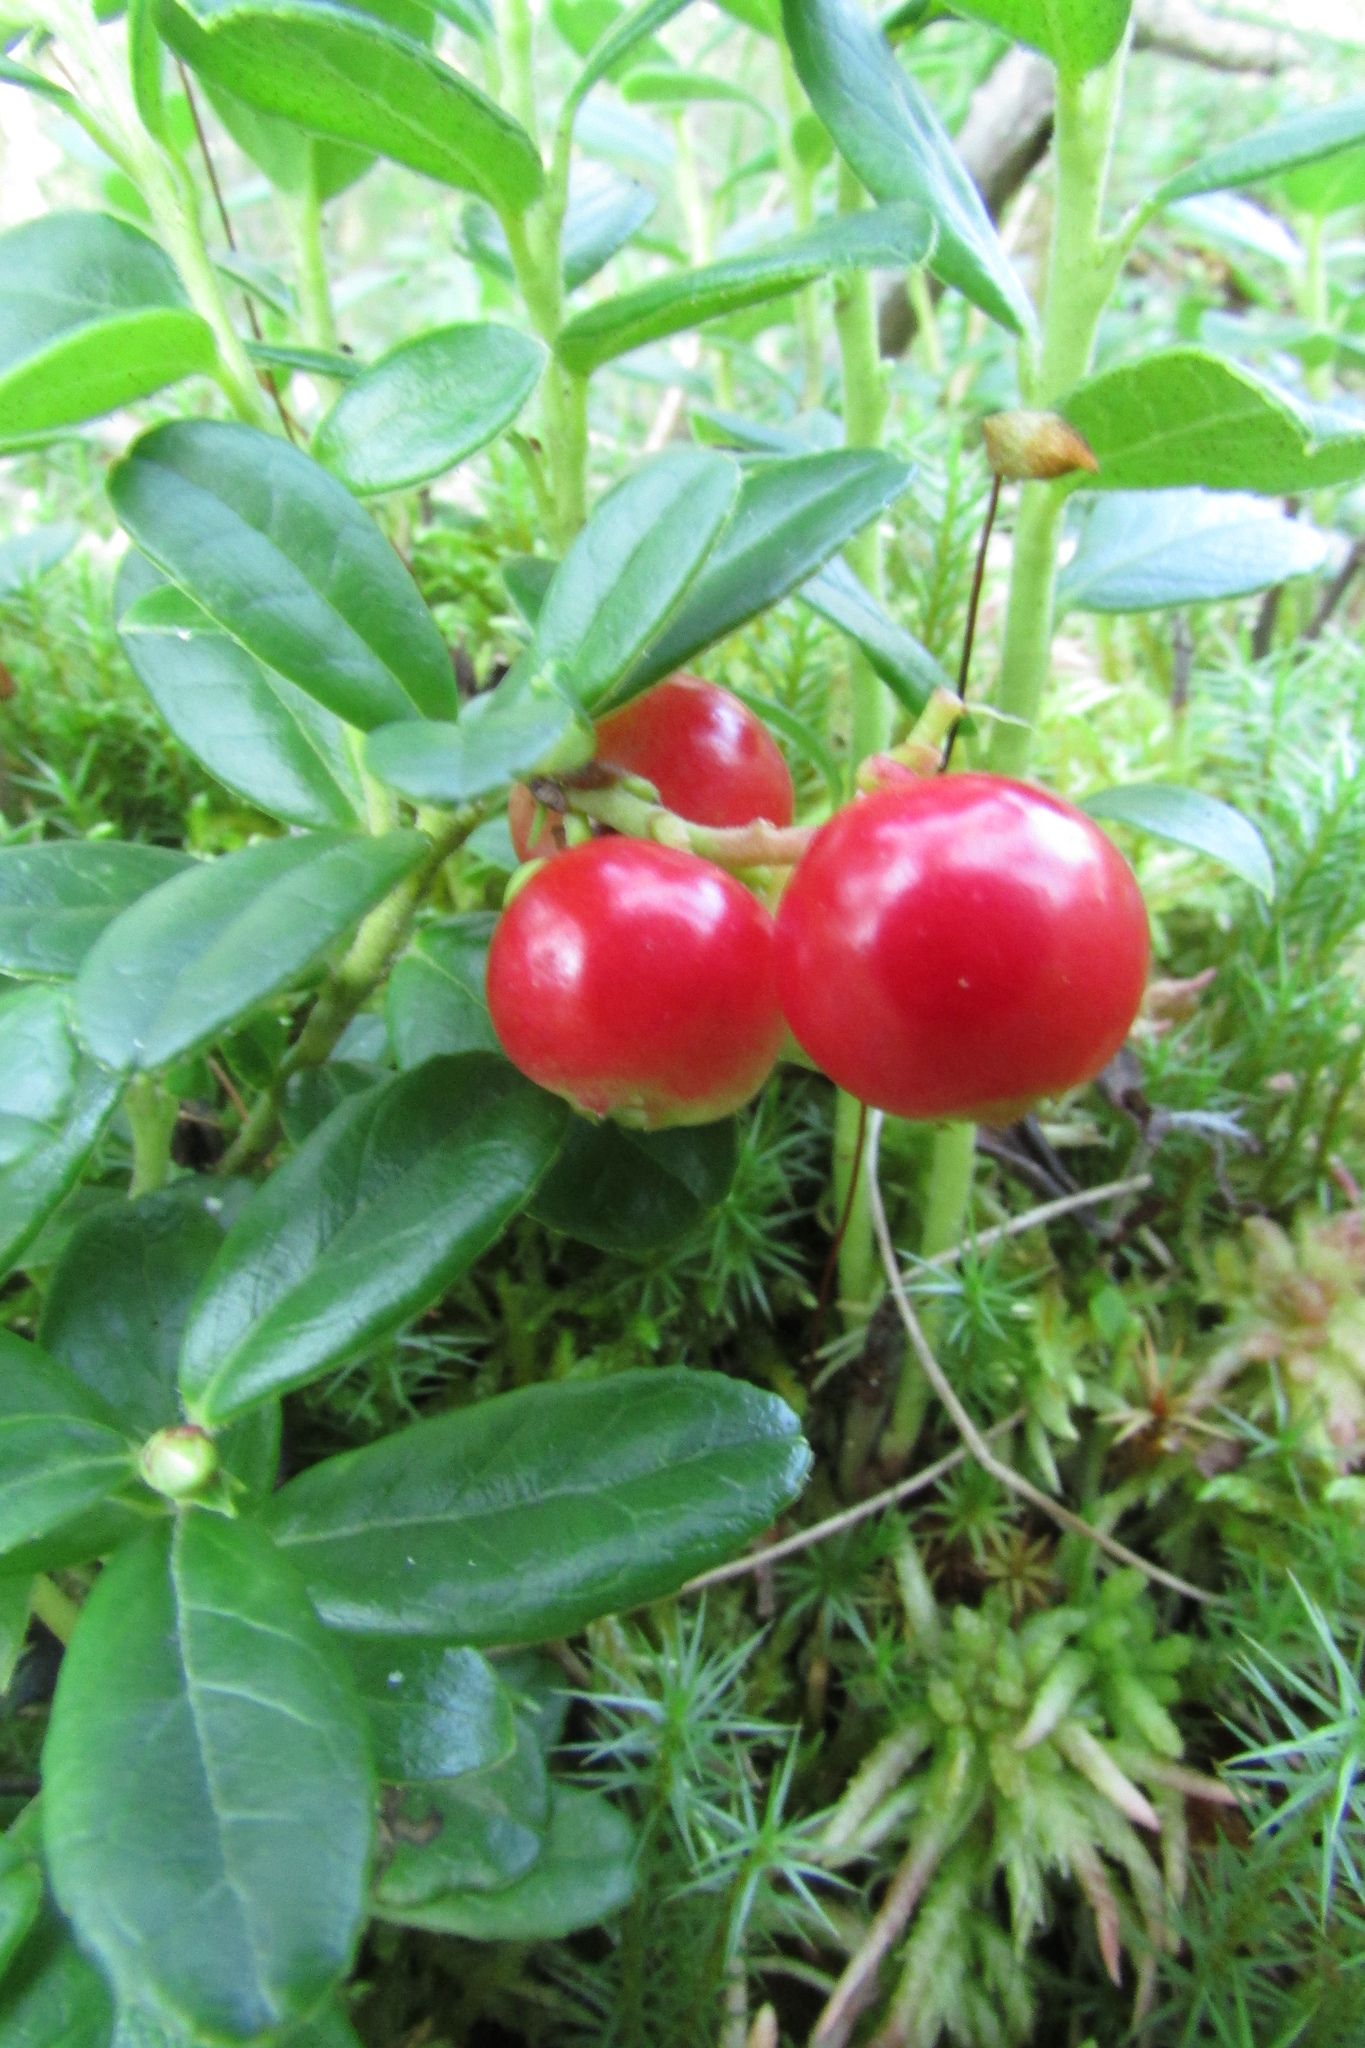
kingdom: Plantae
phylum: Tracheophyta
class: Magnoliopsida
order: Ericales
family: Ericaceae
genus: Vaccinium
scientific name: Vaccinium vitis-idaea
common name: Cowberry
